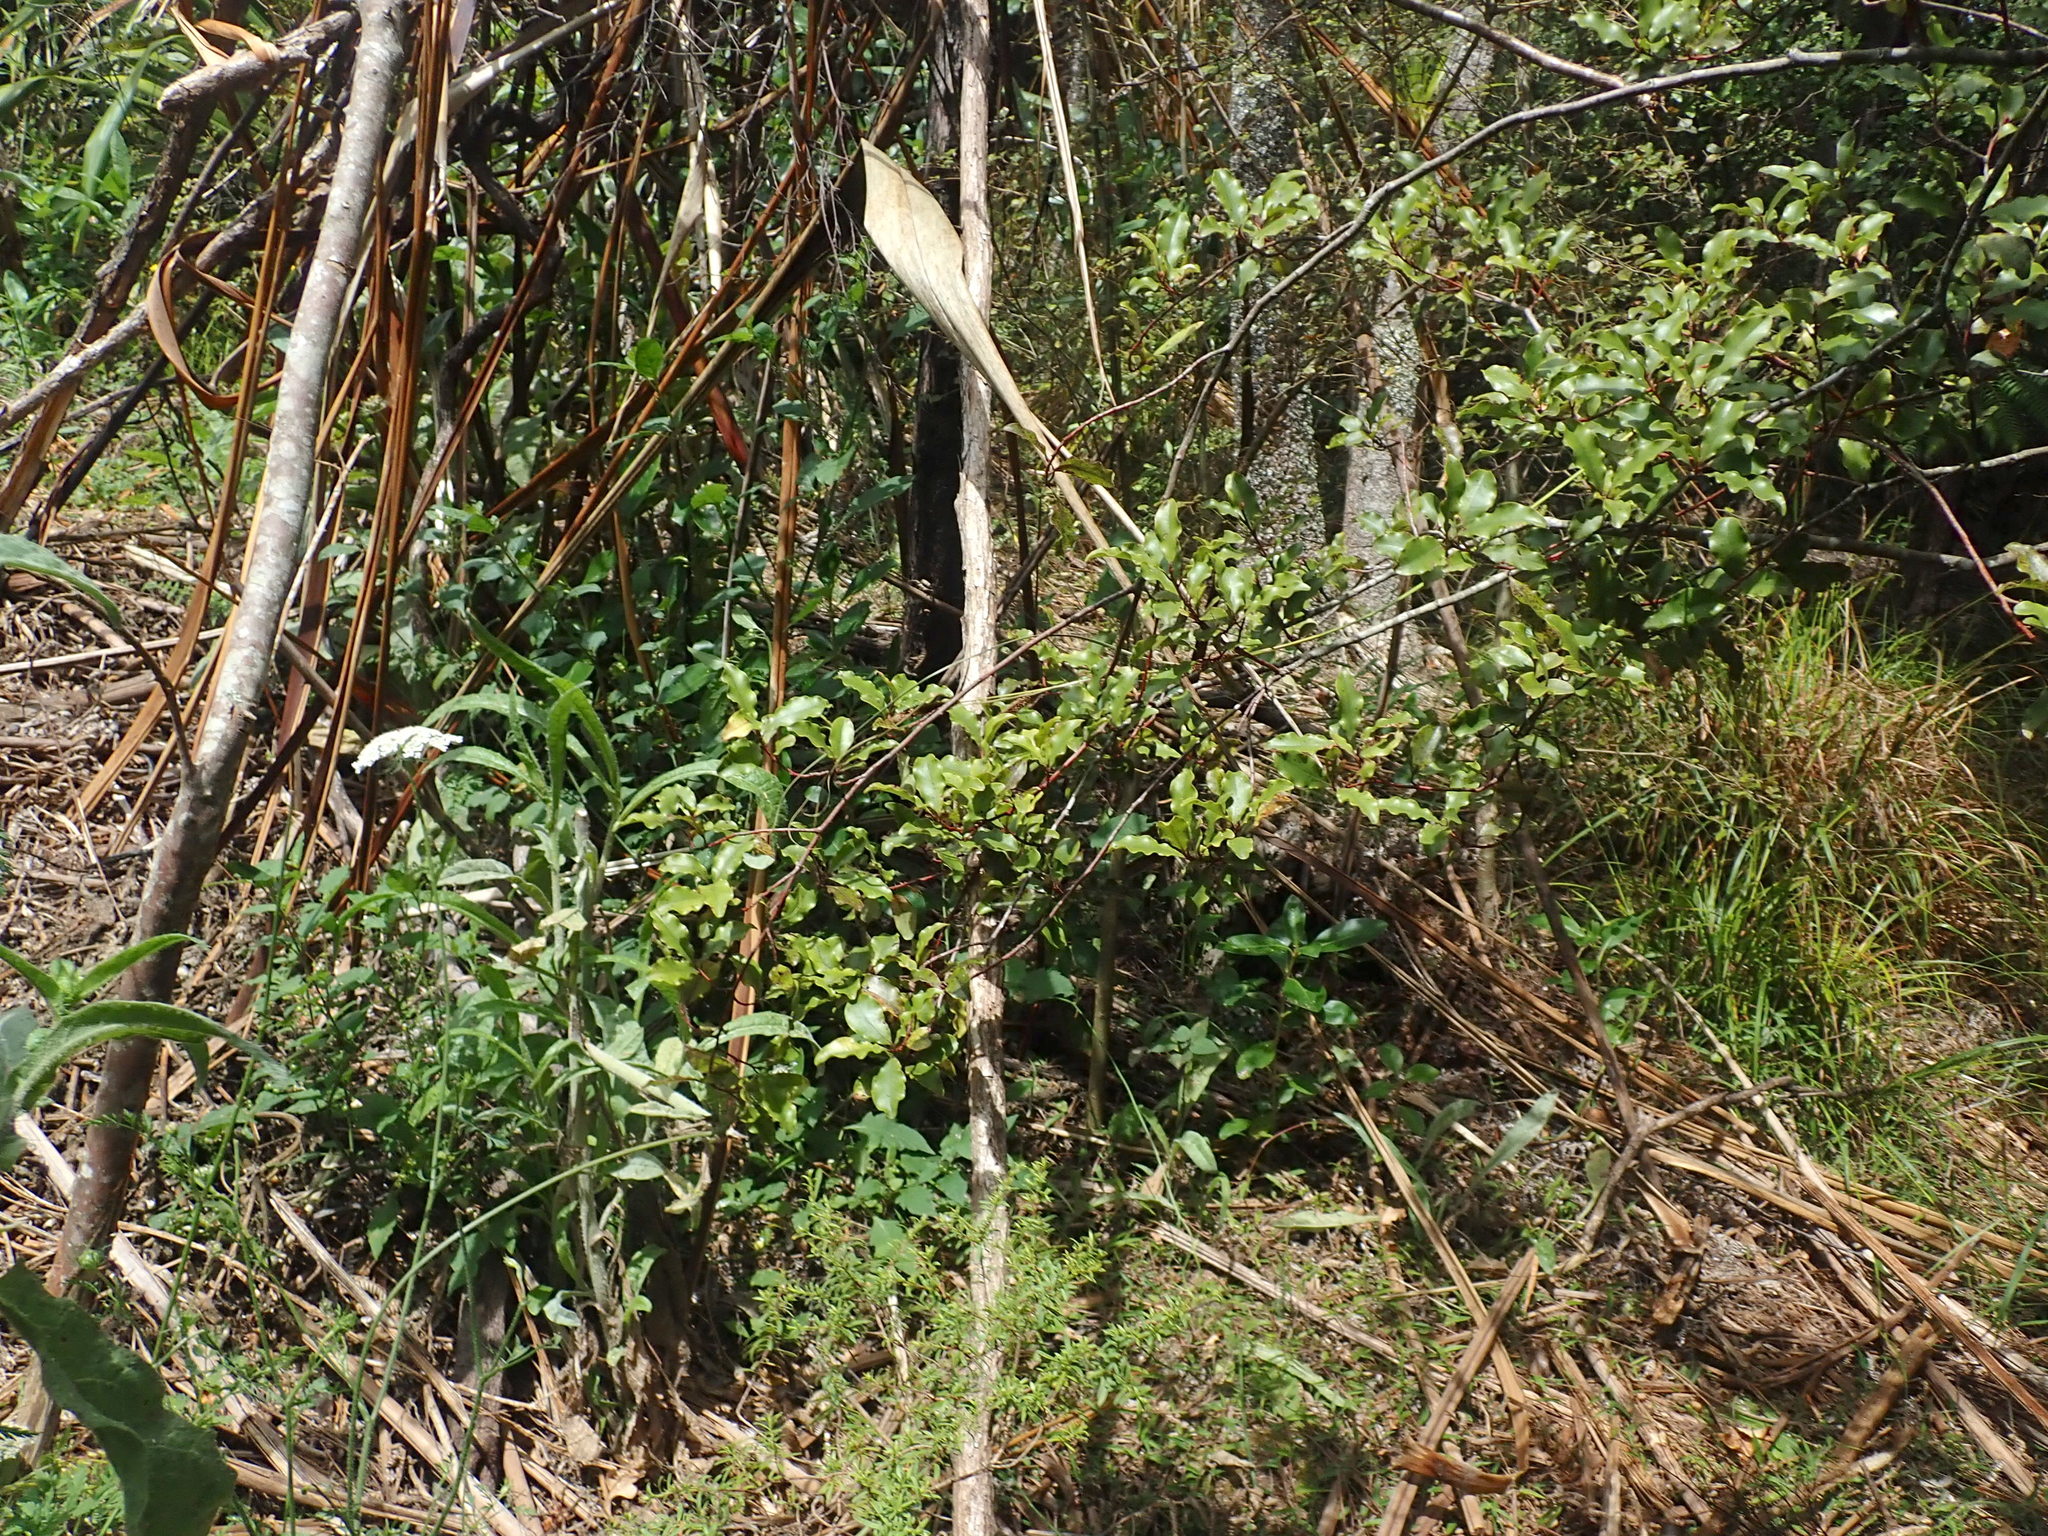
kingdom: Plantae
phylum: Tracheophyta
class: Magnoliopsida
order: Ericales
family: Primulaceae
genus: Myrsine
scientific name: Myrsine australis
